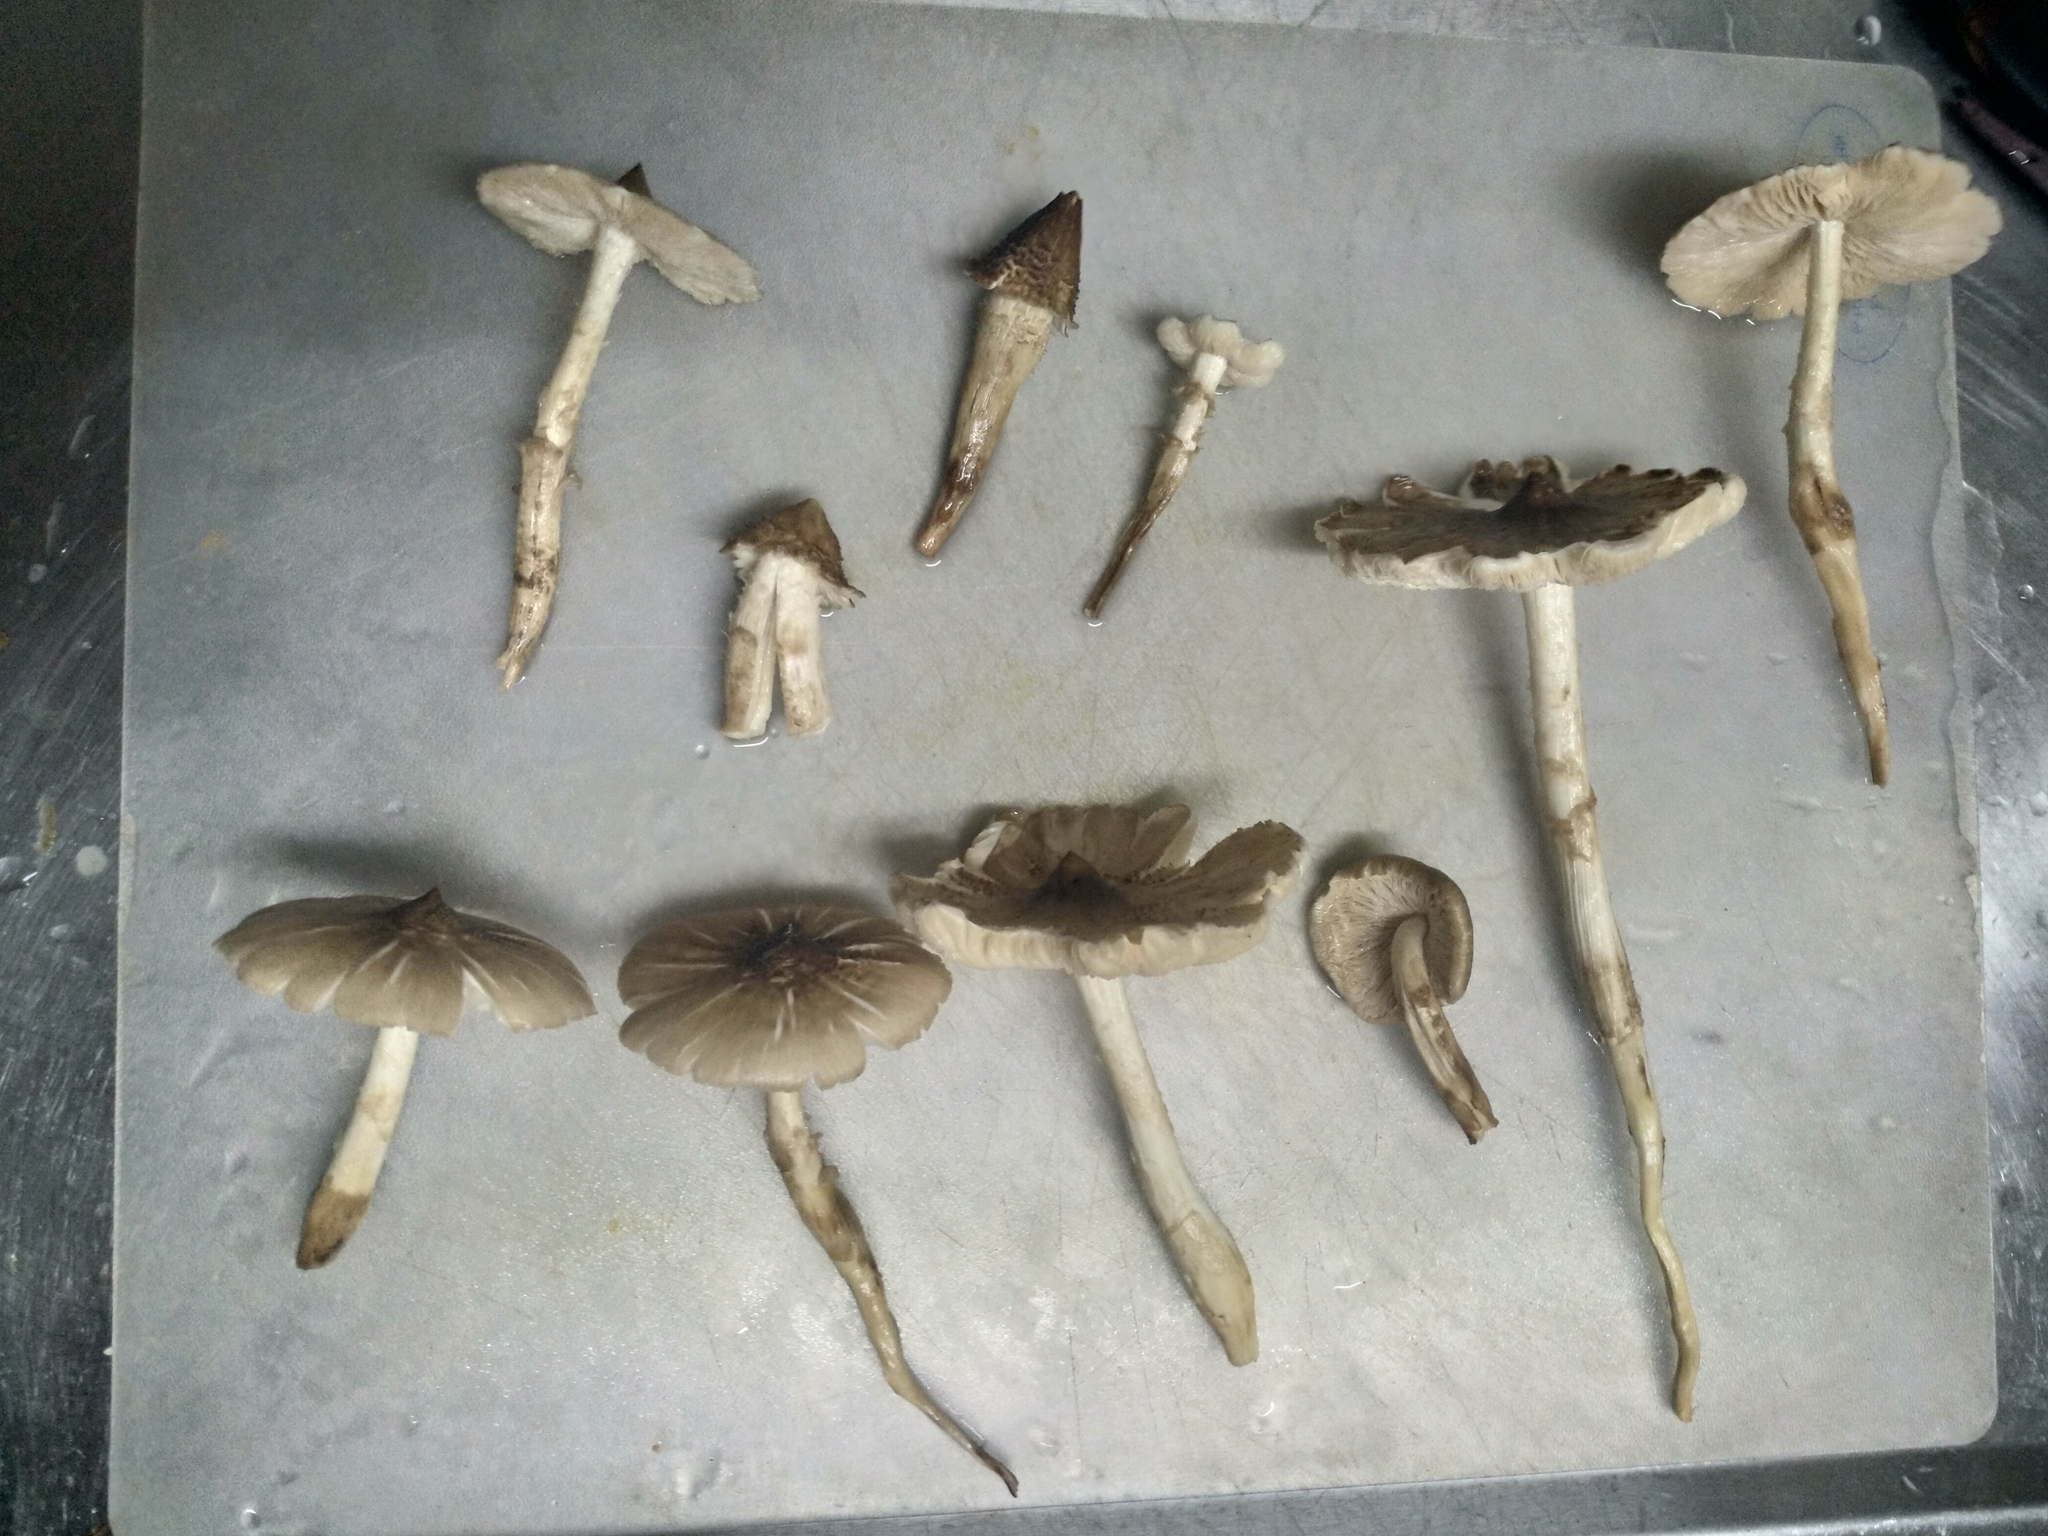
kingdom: Fungi
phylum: Basidiomycota
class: Agaricomycetes
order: Agaricales
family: Lyophyllaceae
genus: Termitomyces
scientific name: Termitomyces eurrhizus
